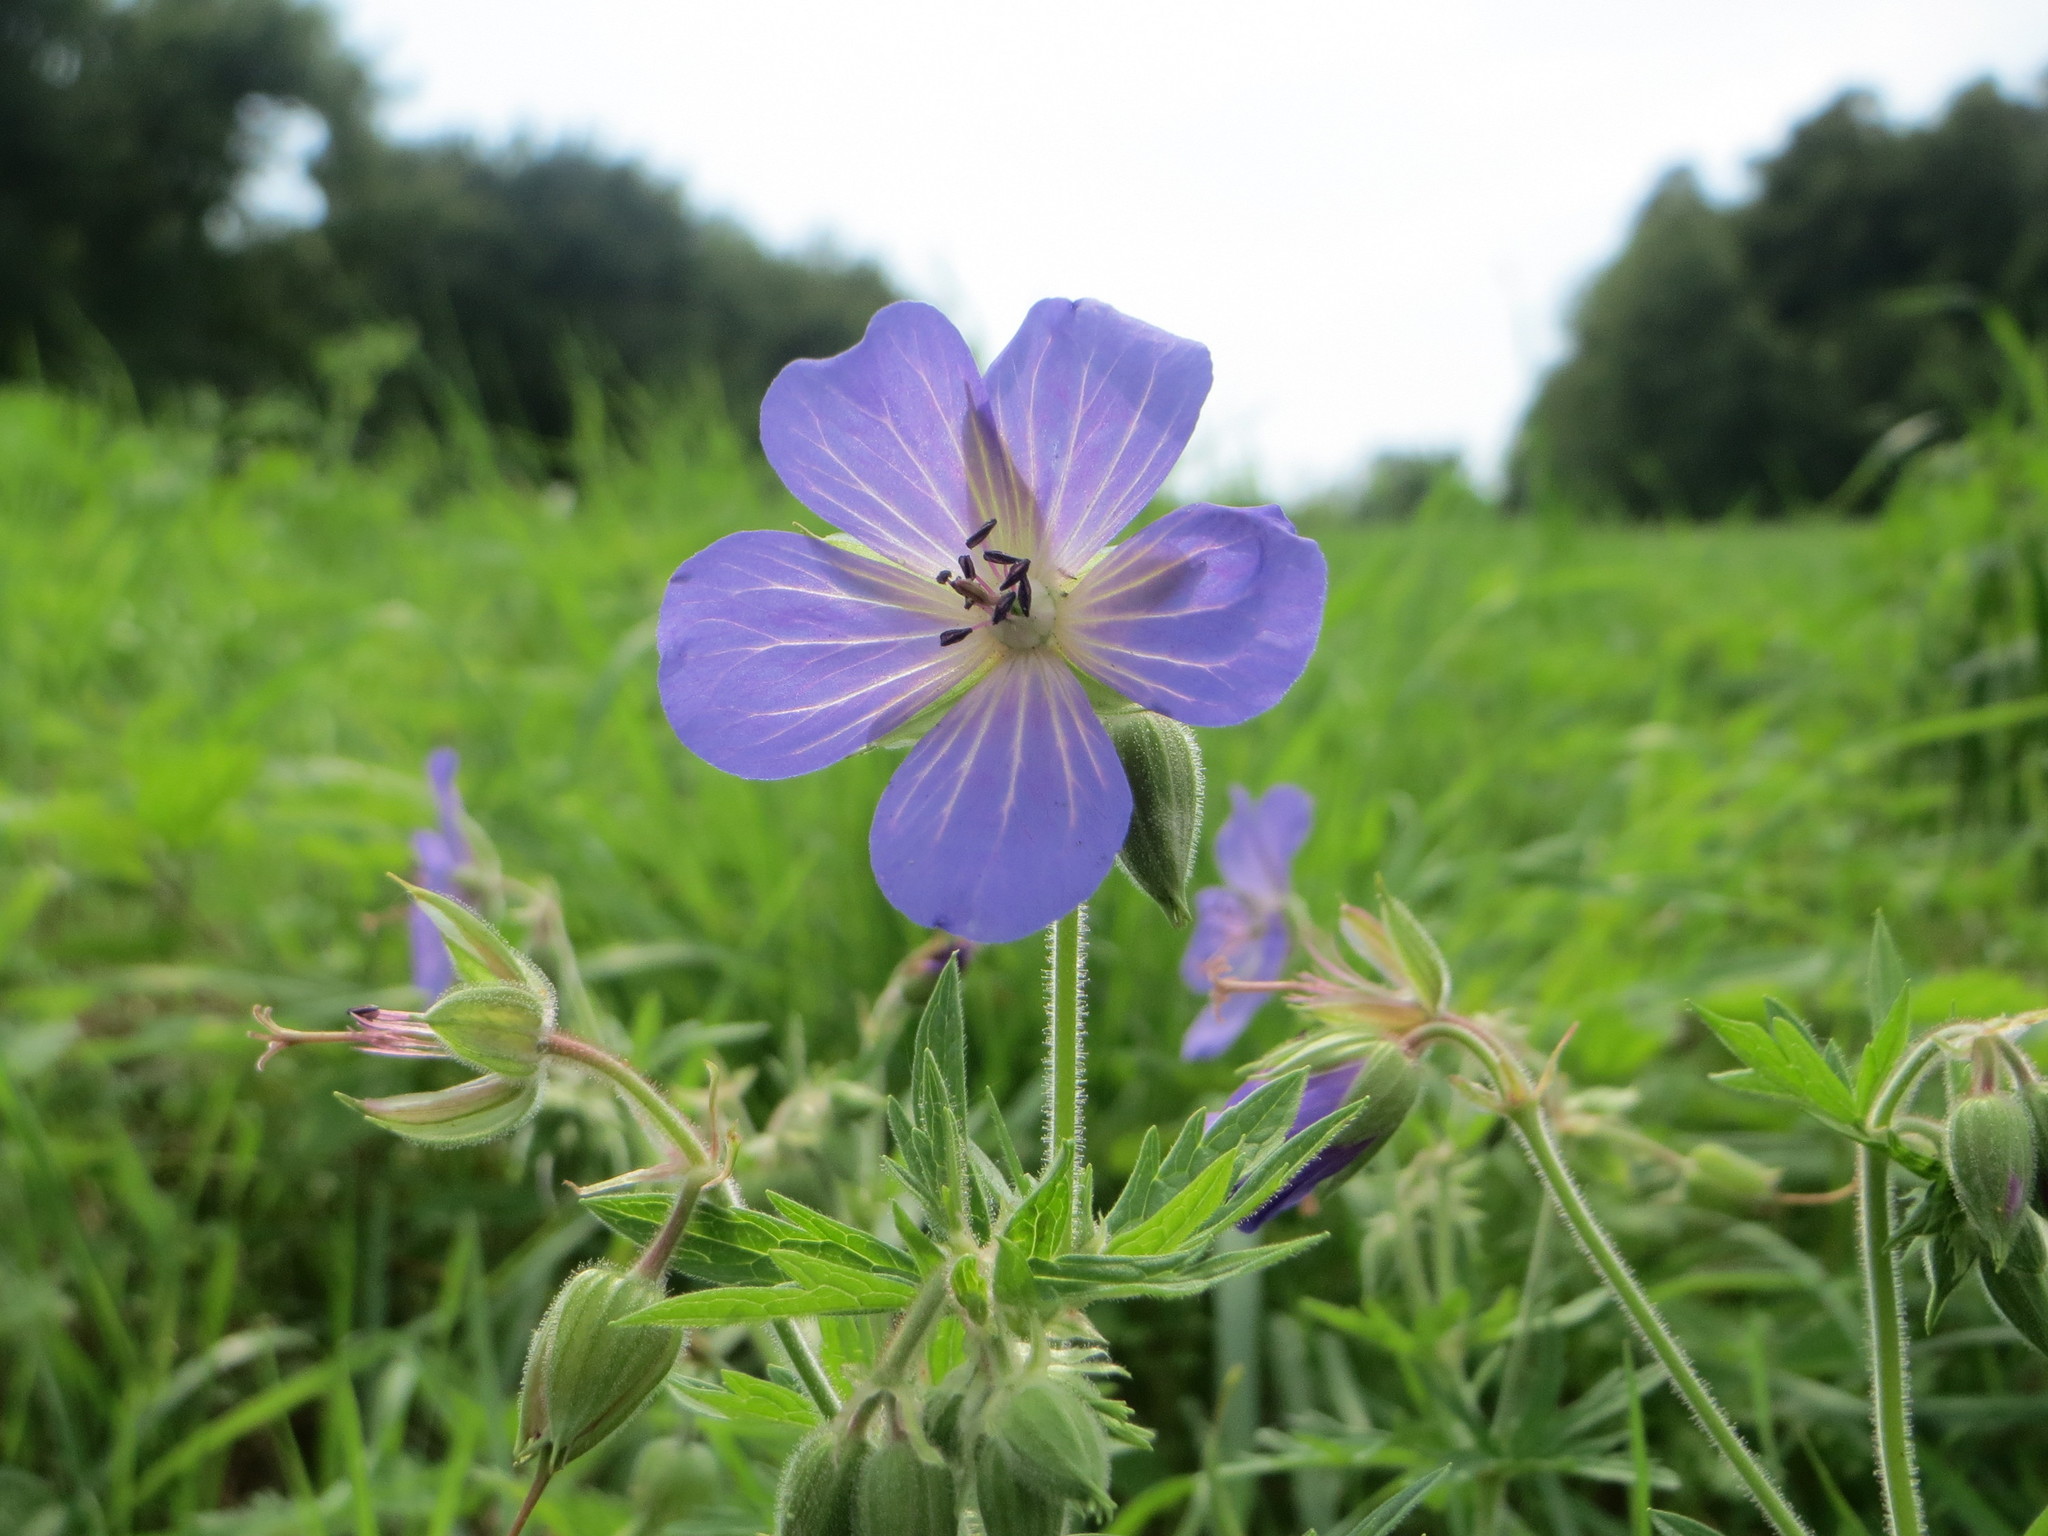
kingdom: Plantae
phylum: Tracheophyta
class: Magnoliopsida
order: Geraniales
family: Geraniaceae
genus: Geranium
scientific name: Geranium pratense
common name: Meadow crane's-bill
